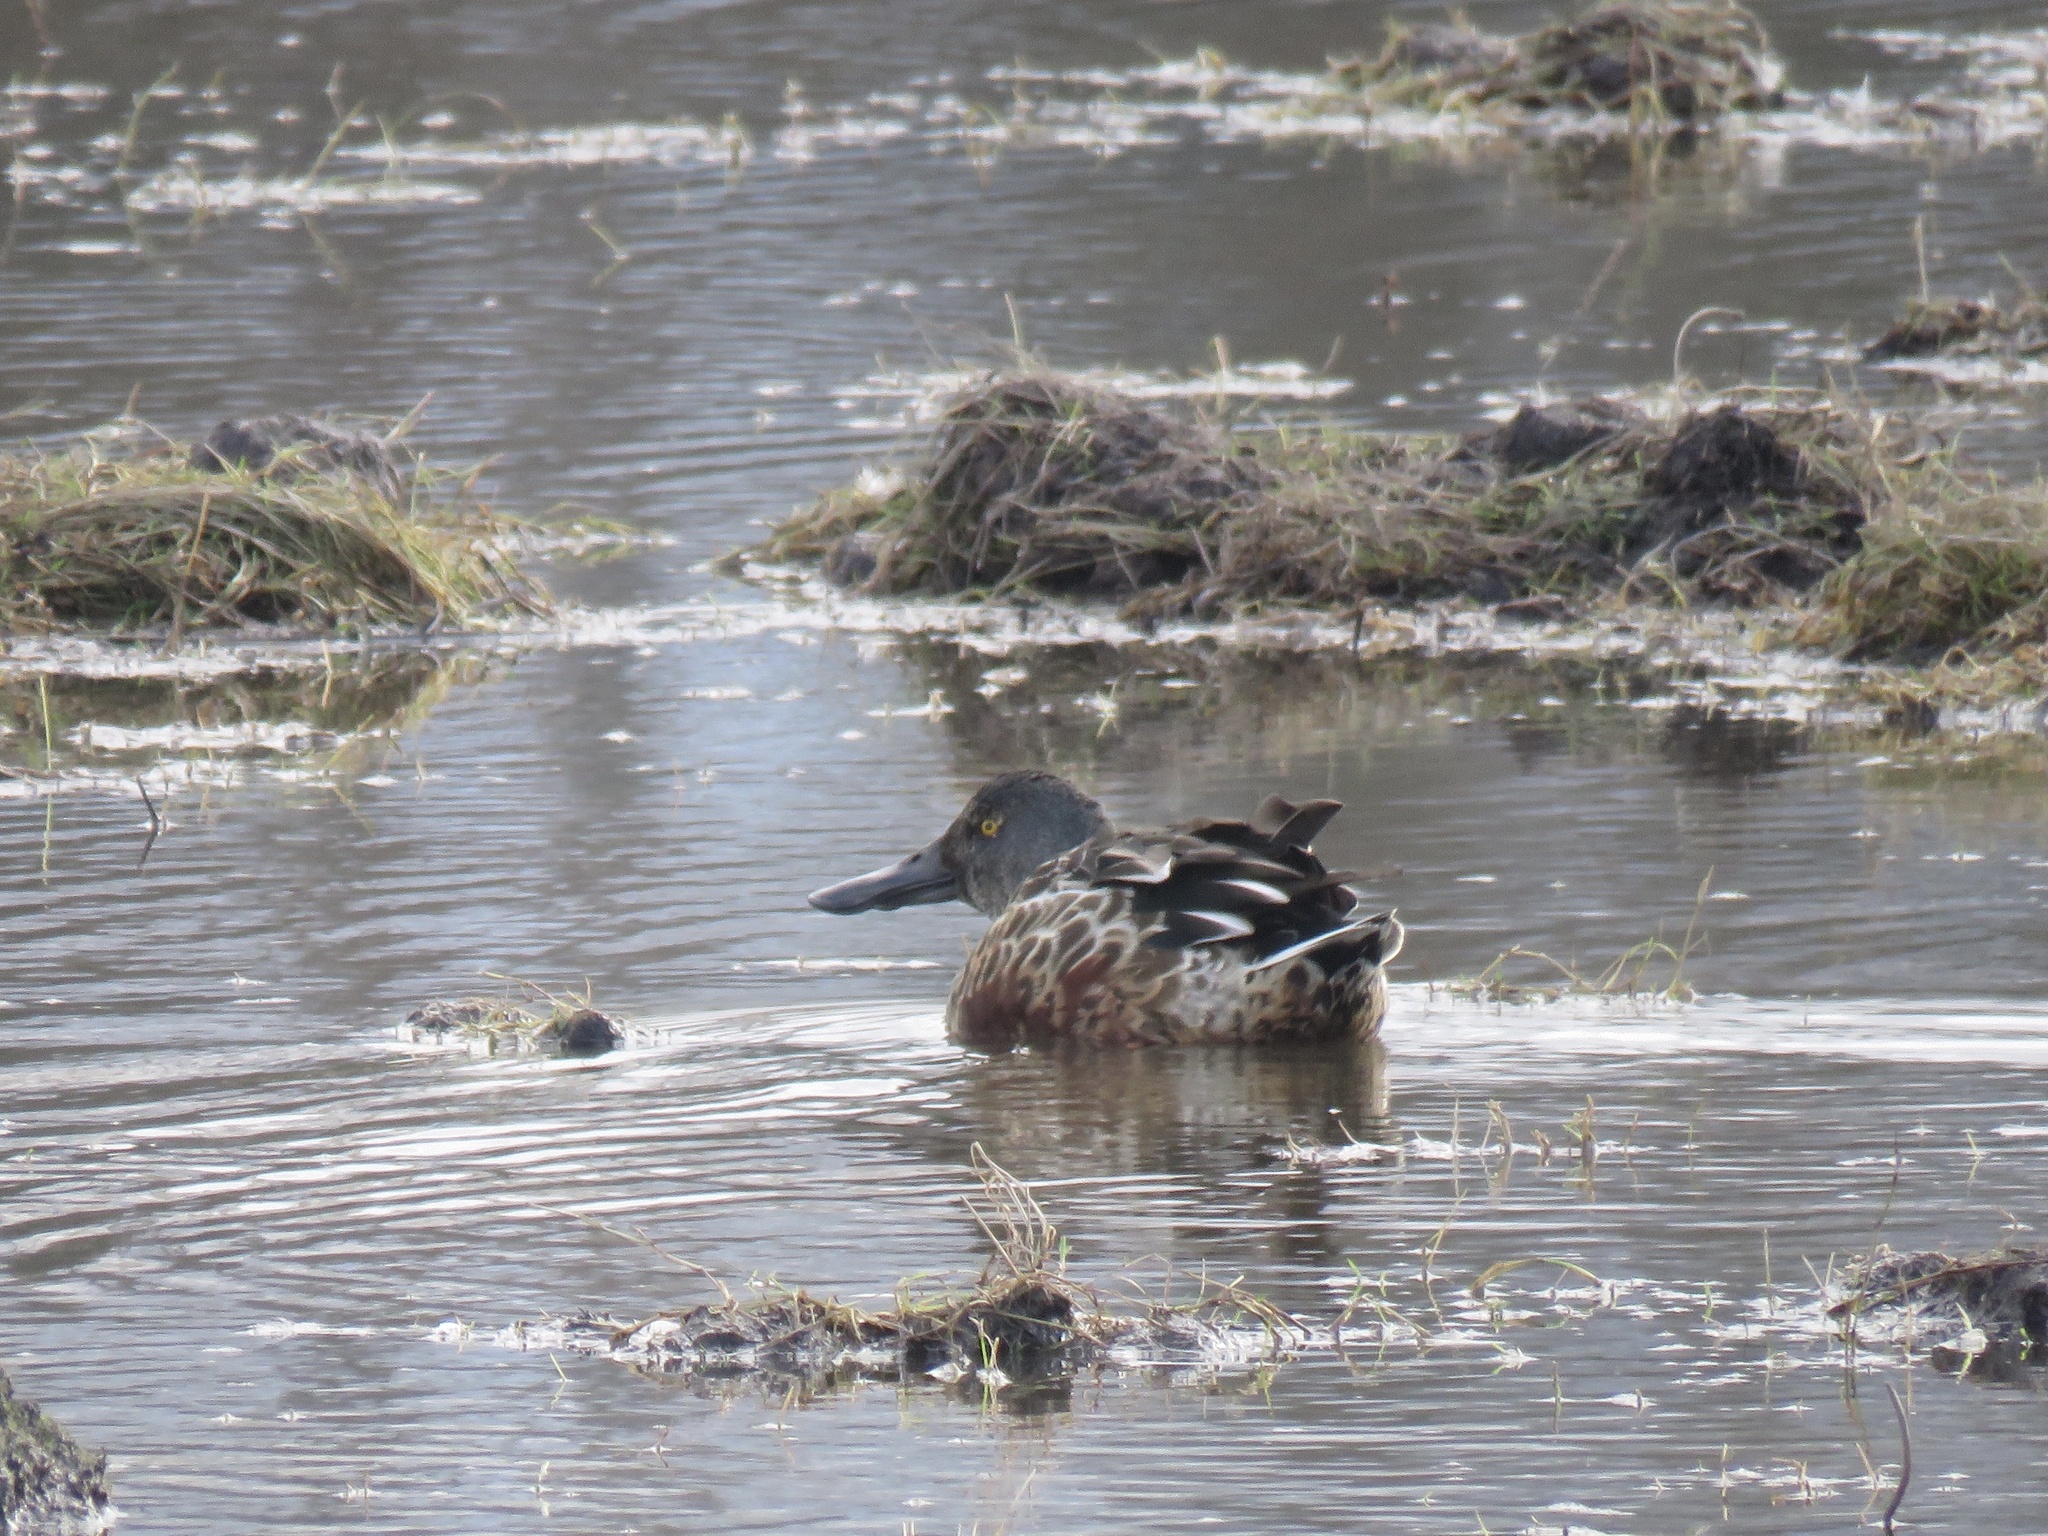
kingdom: Animalia
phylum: Chordata
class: Aves
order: Anseriformes
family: Anatidae
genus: Spatula
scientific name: Spatula clypeata
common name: Northern shoveler
